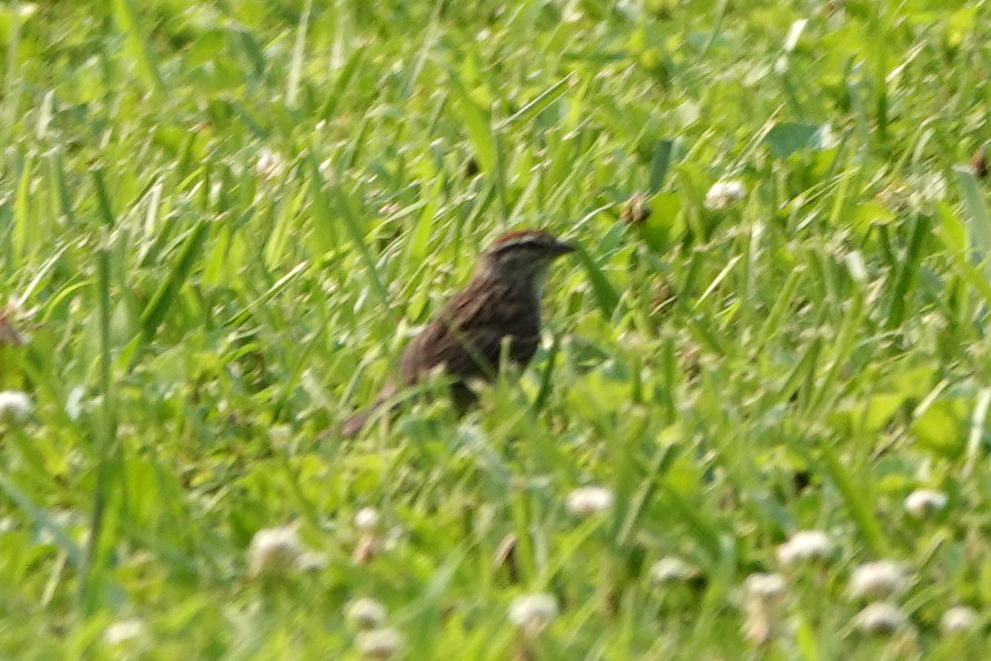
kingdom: Animalia
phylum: Chordata
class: Aves
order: Passeriformes
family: Passerellidae
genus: Spizella
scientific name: Spizella passerina
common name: Chipping sparrow
